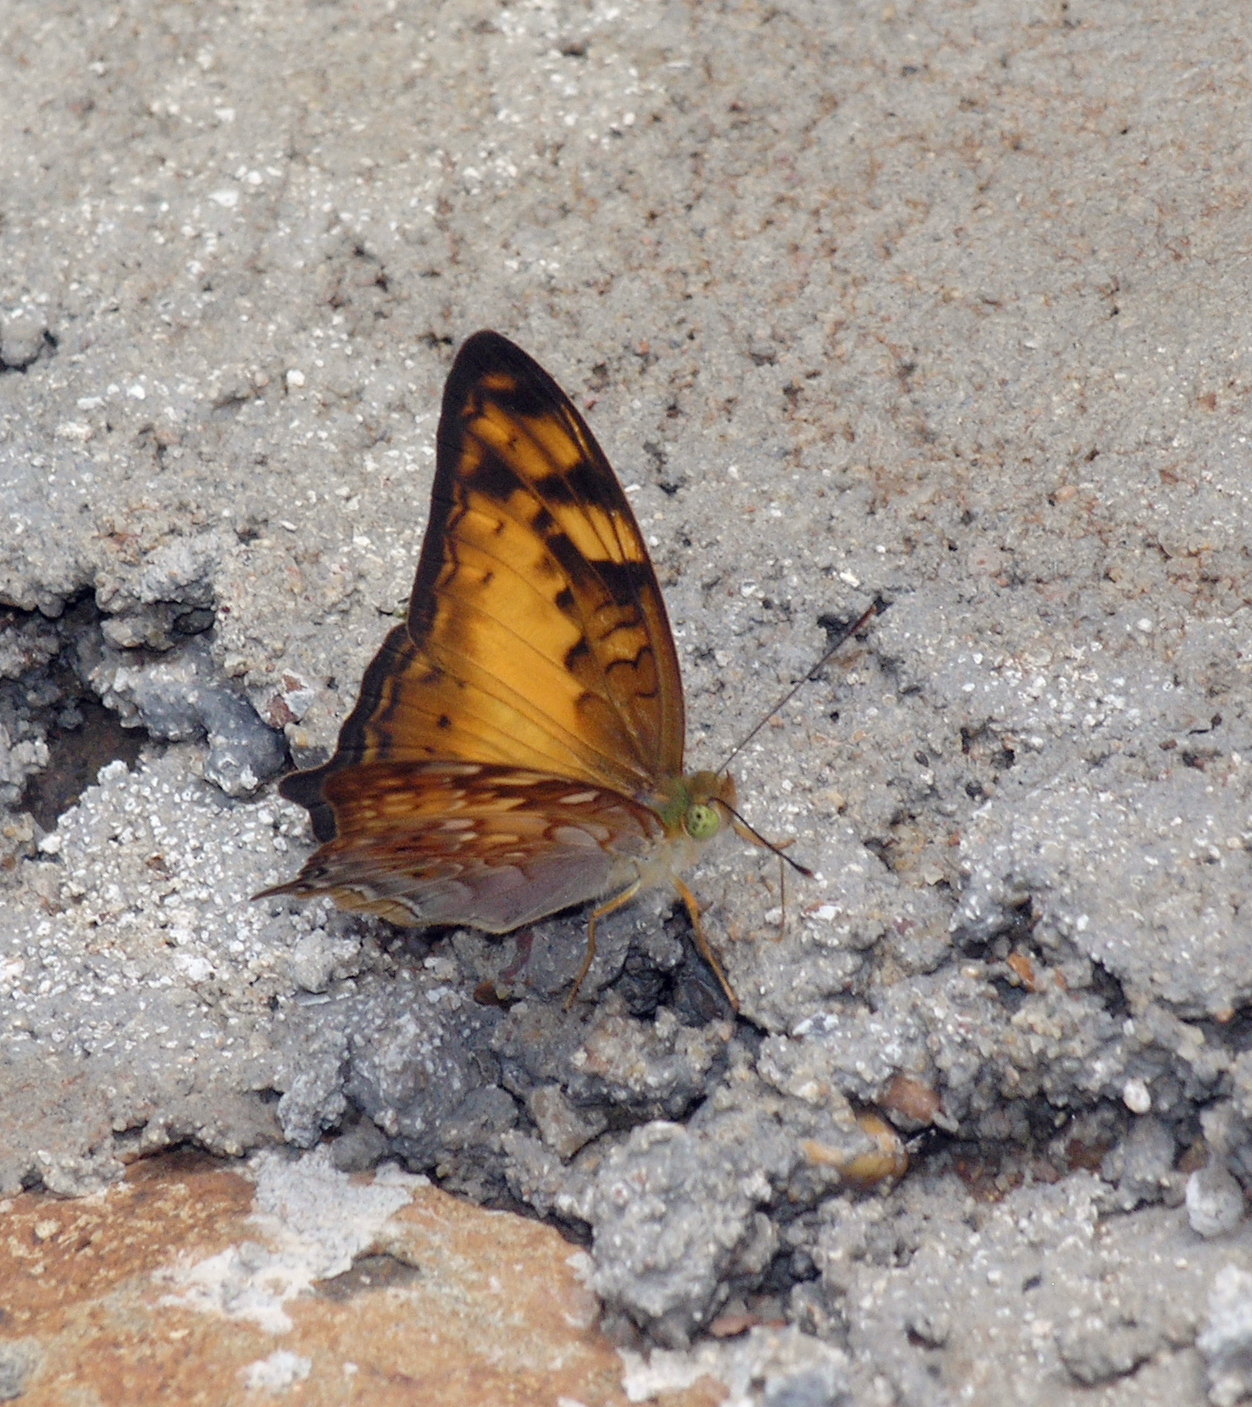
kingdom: Animalia
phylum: Arthropoda
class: Insecta
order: Lepidoptera
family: Nymphalidae
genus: Vagrans
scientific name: Vagrans sinha
